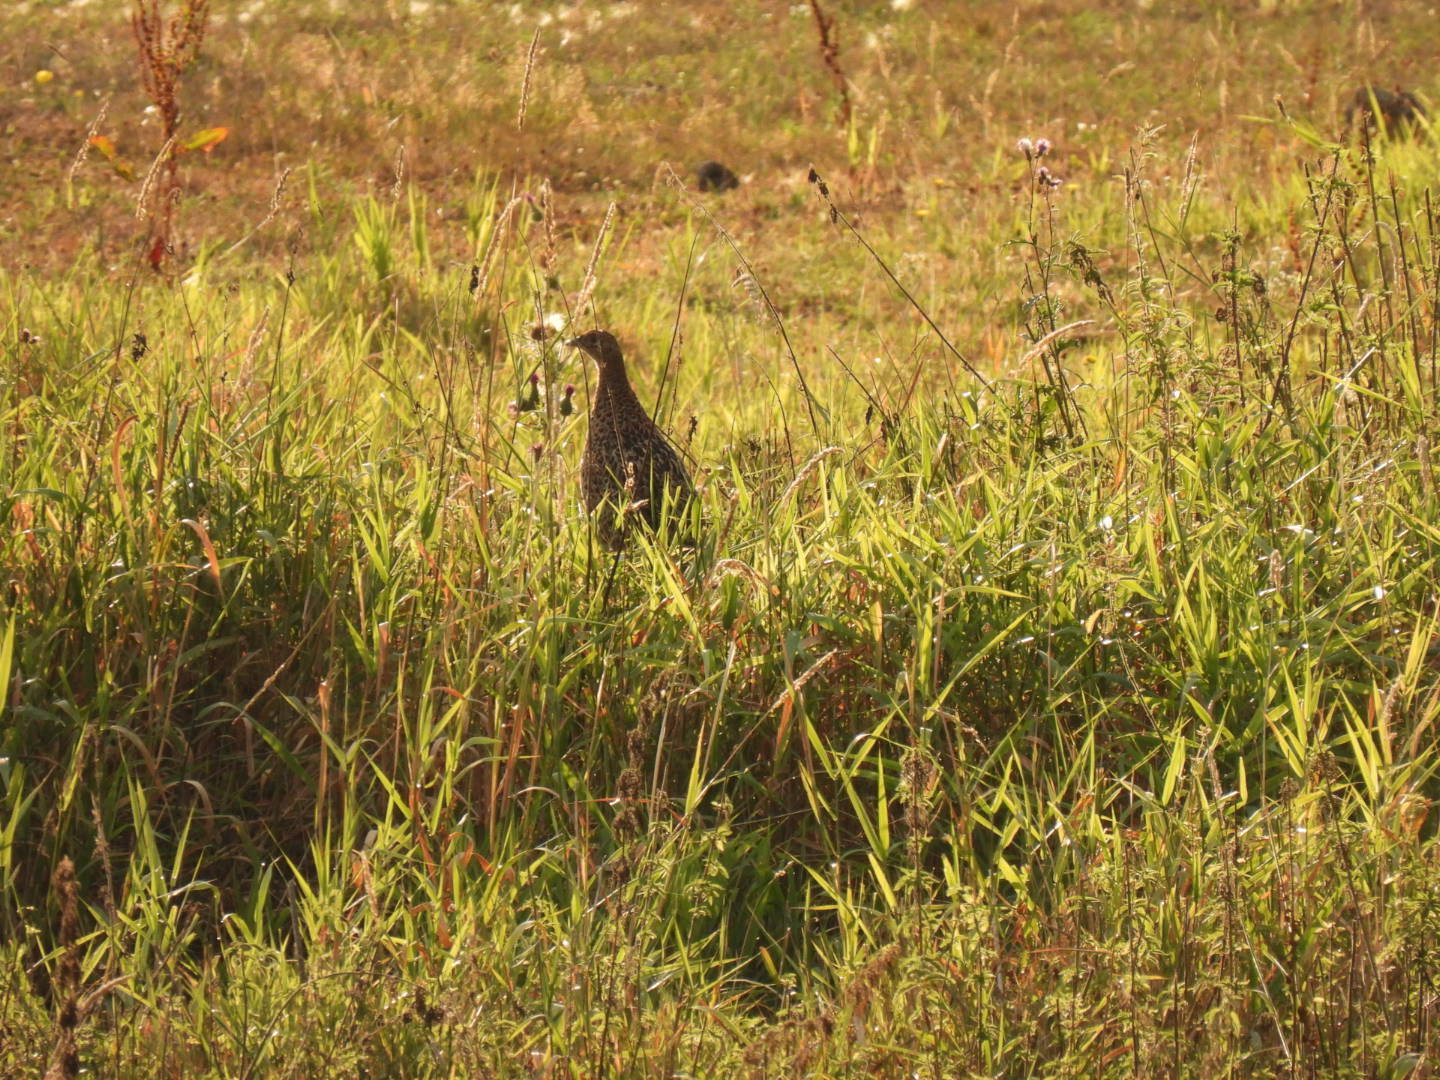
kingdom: Animalia
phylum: Chordata
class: Aves
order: Galliformes
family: Phasianidae
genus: Phasianus
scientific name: Phasianus colchicus
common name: Common pheasant
